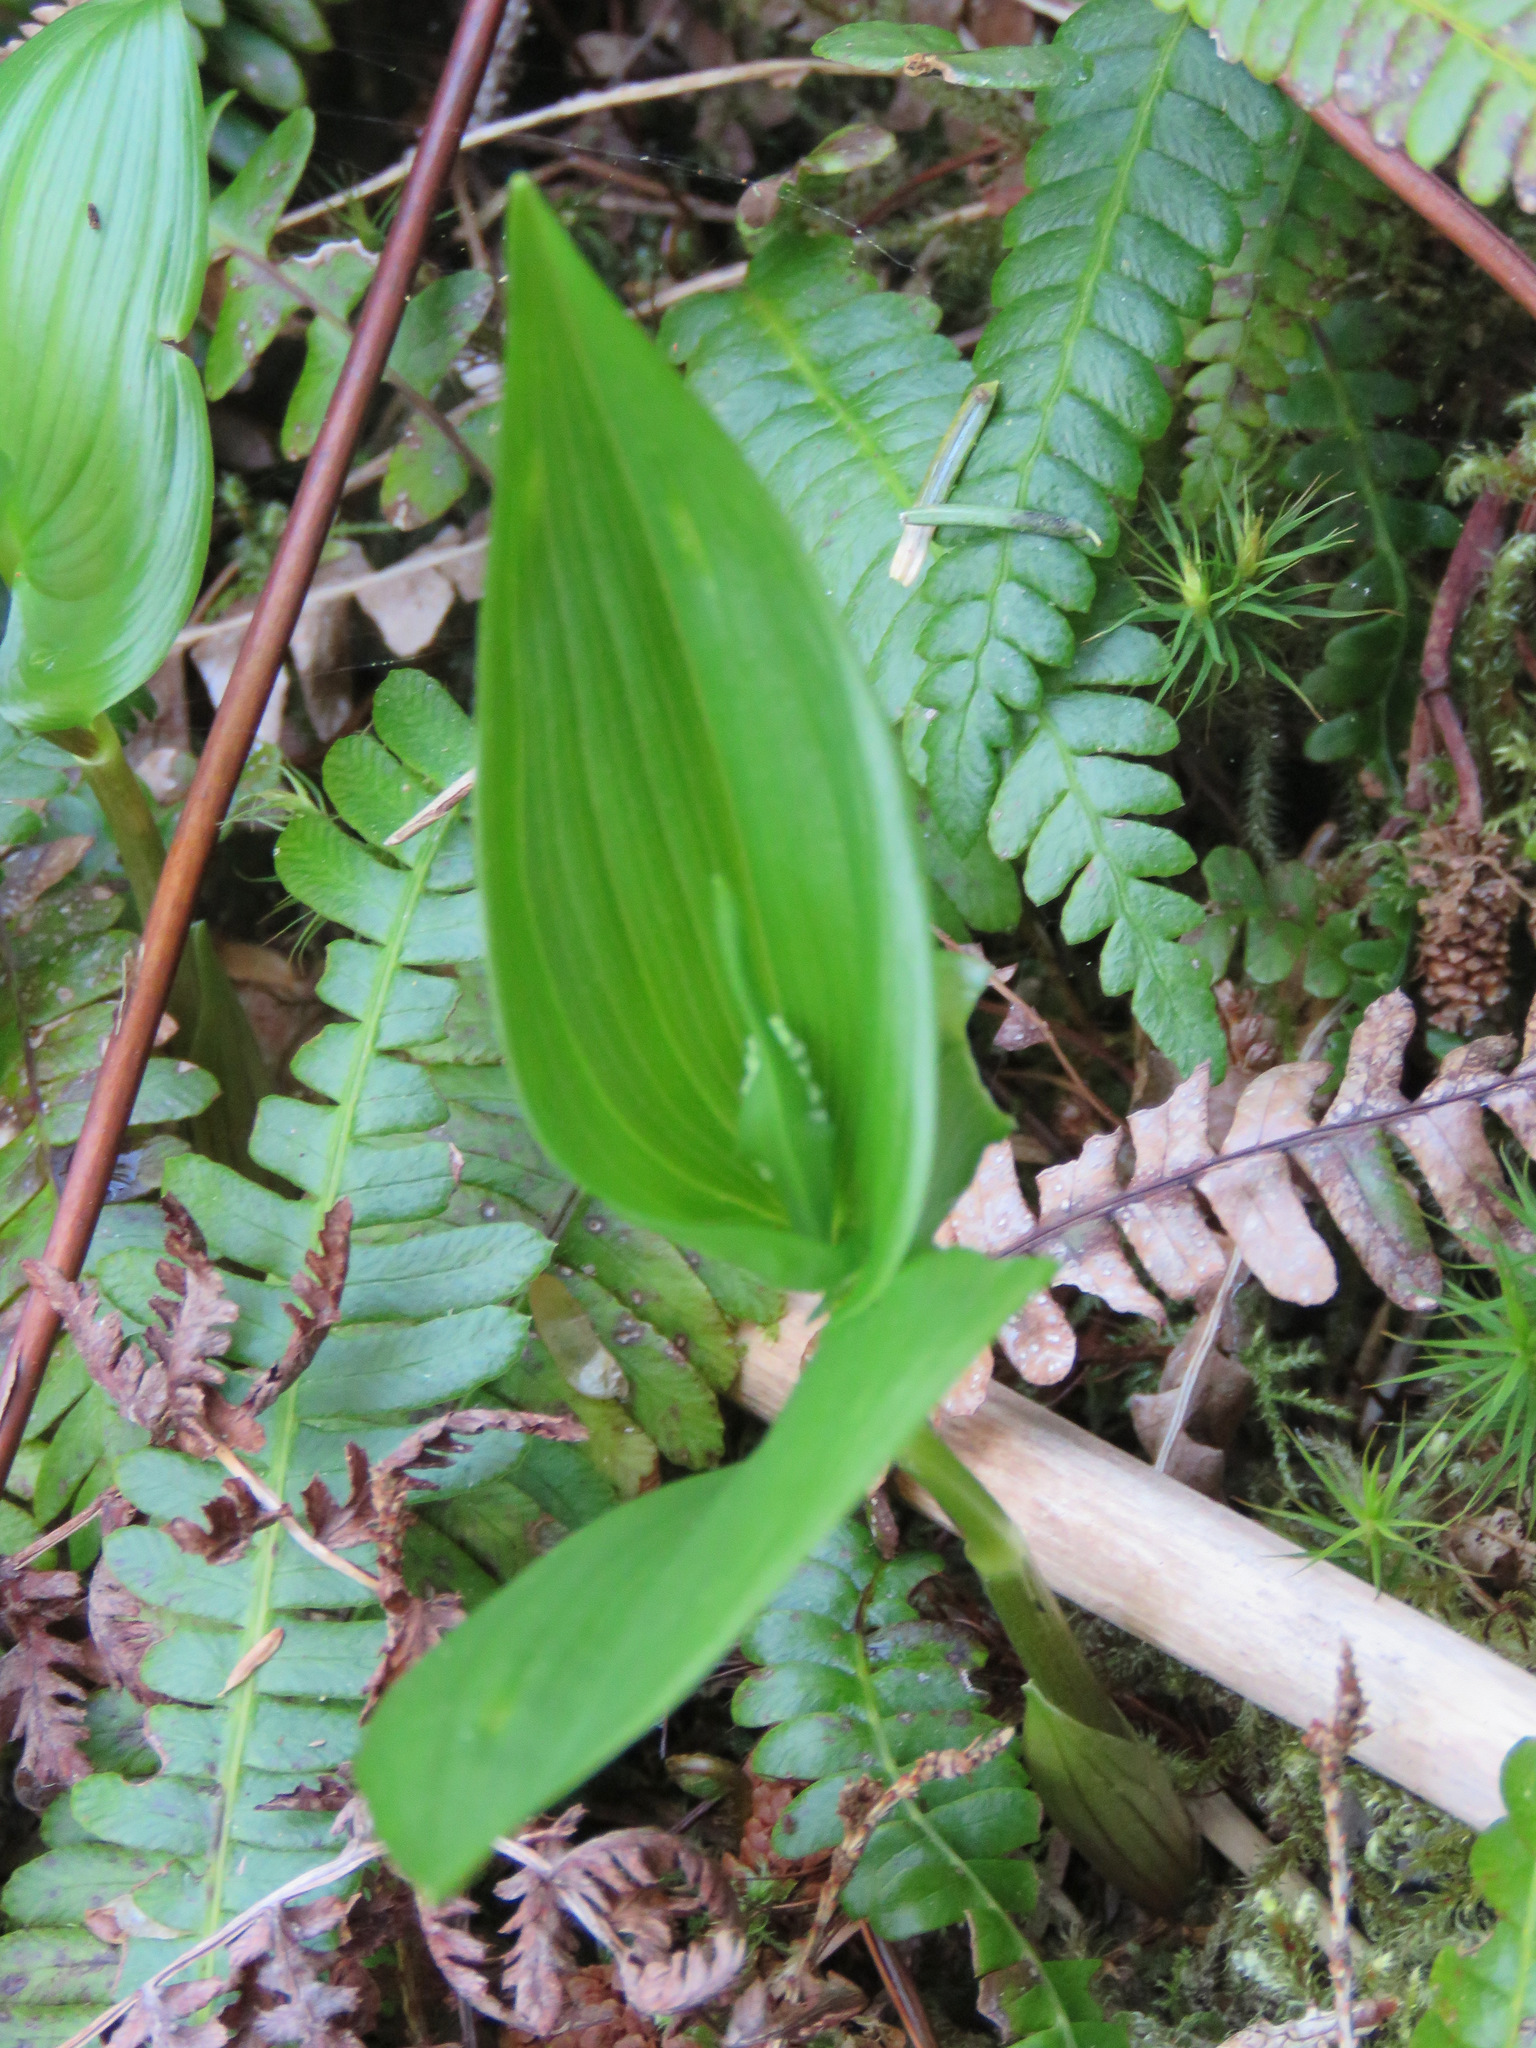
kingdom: Plantae
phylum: Tracheophyta
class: Liliopsida
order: Asparagales
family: Asparagaceae
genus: Maianthemum
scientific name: Maianthemum dilatatum
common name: False lily-of-the-valley
